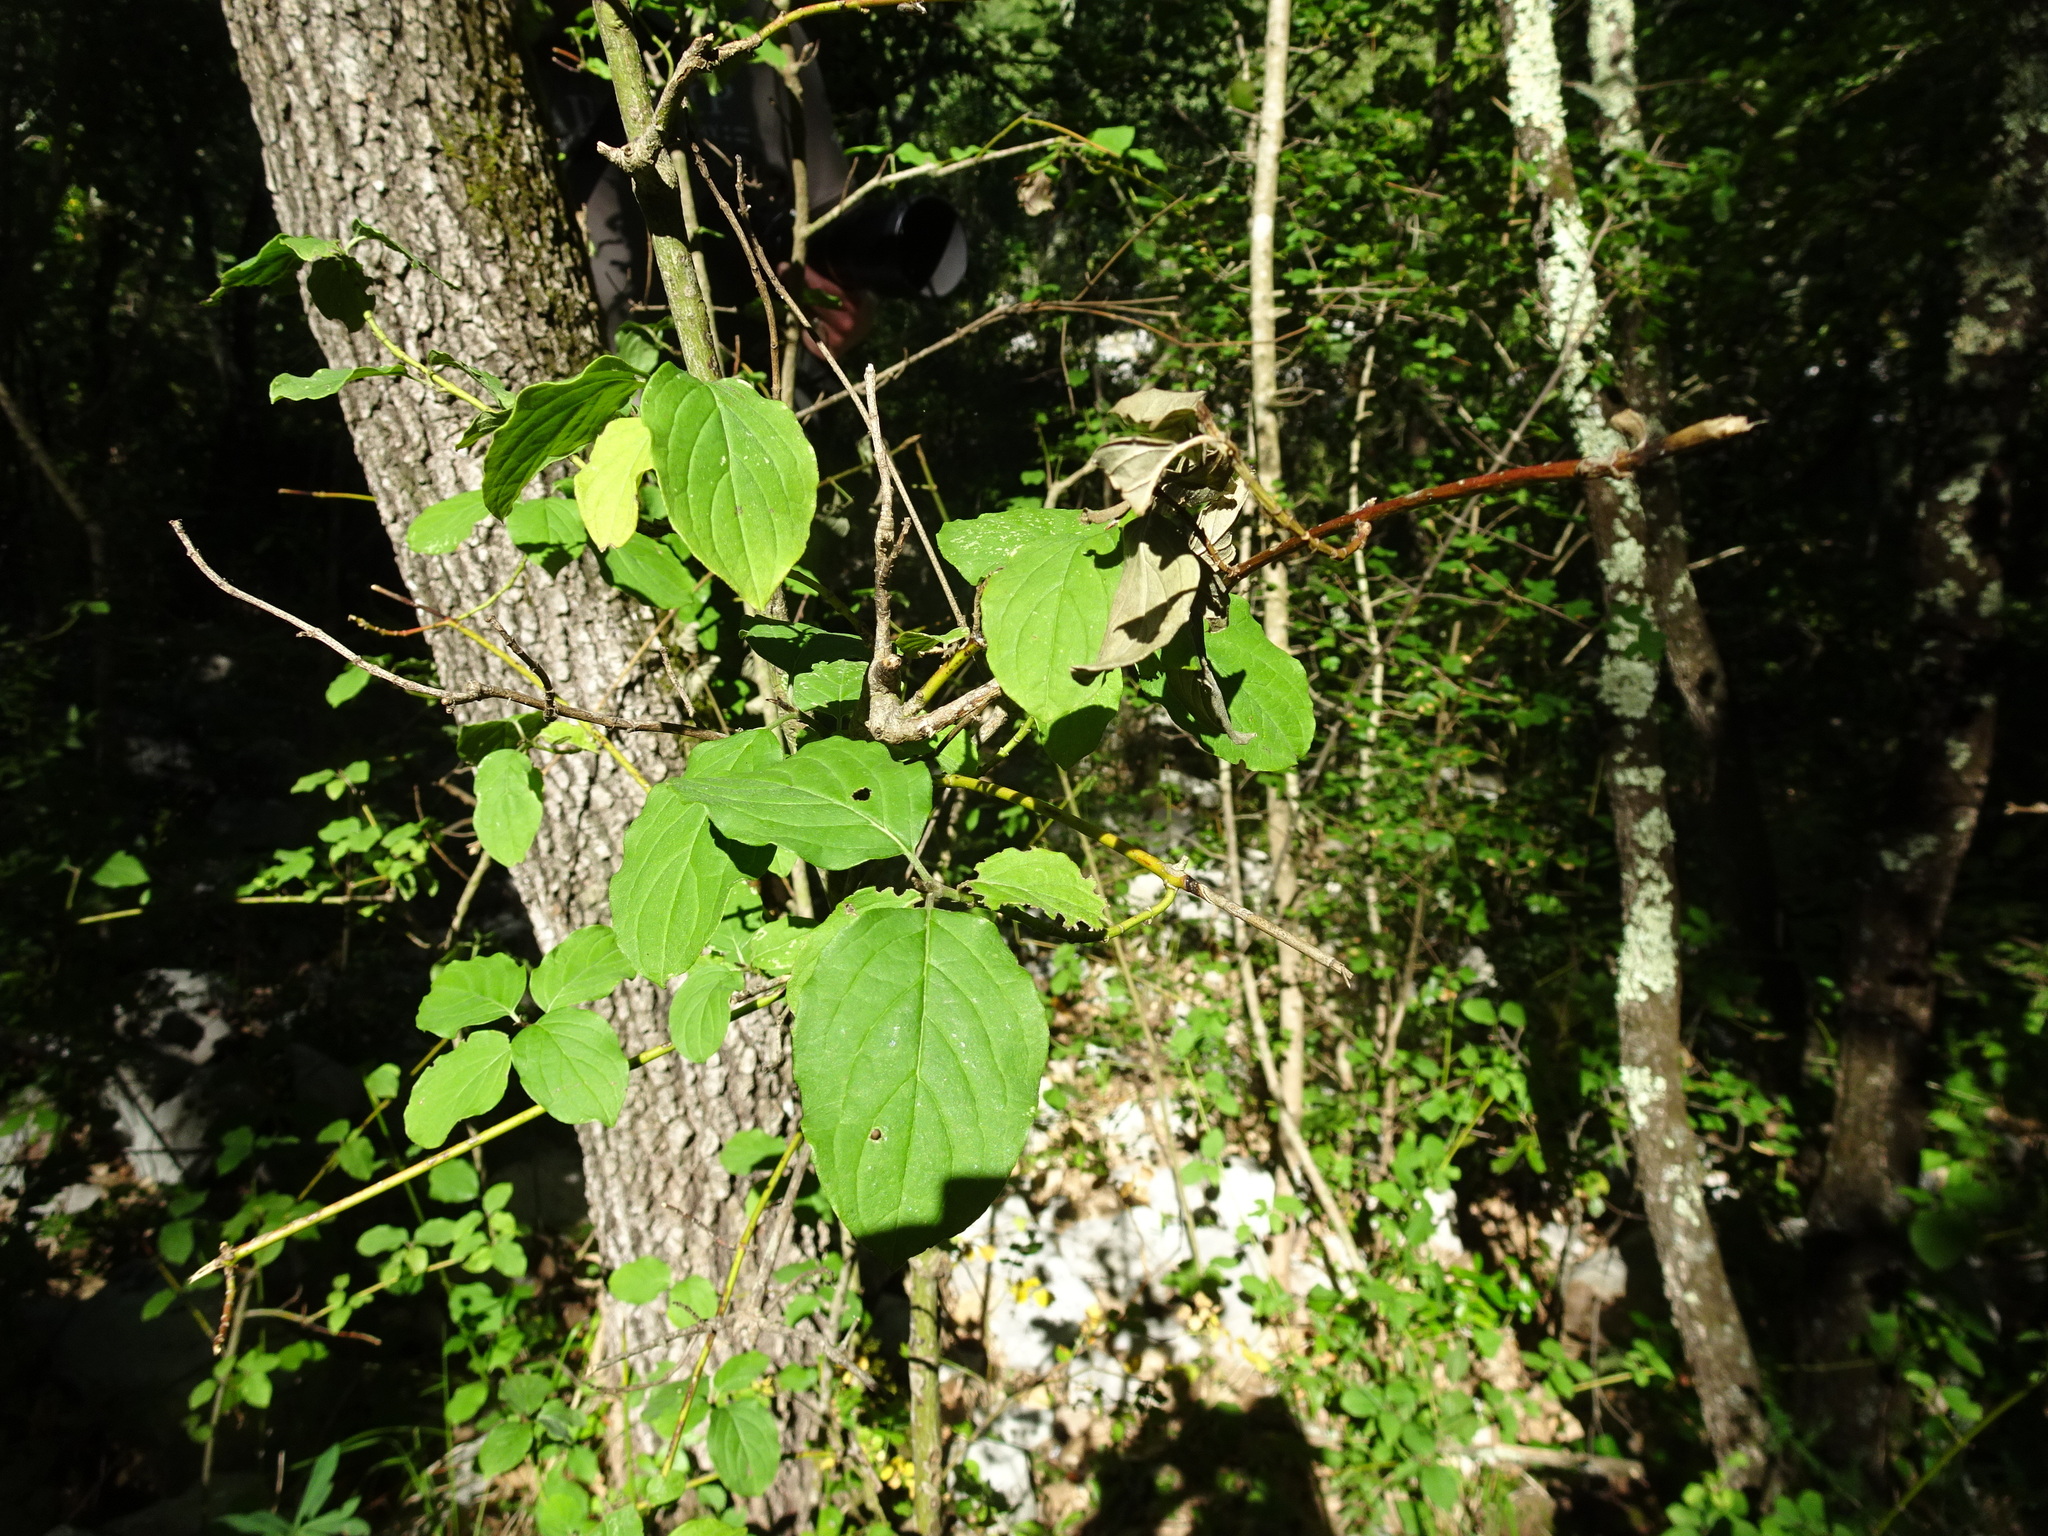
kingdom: Plantae
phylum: Tracheophyta
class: Magnoliopsida
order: Cornales
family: Cornaceae
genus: Cornus
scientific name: Cornus sanguinea
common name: Dogwood
